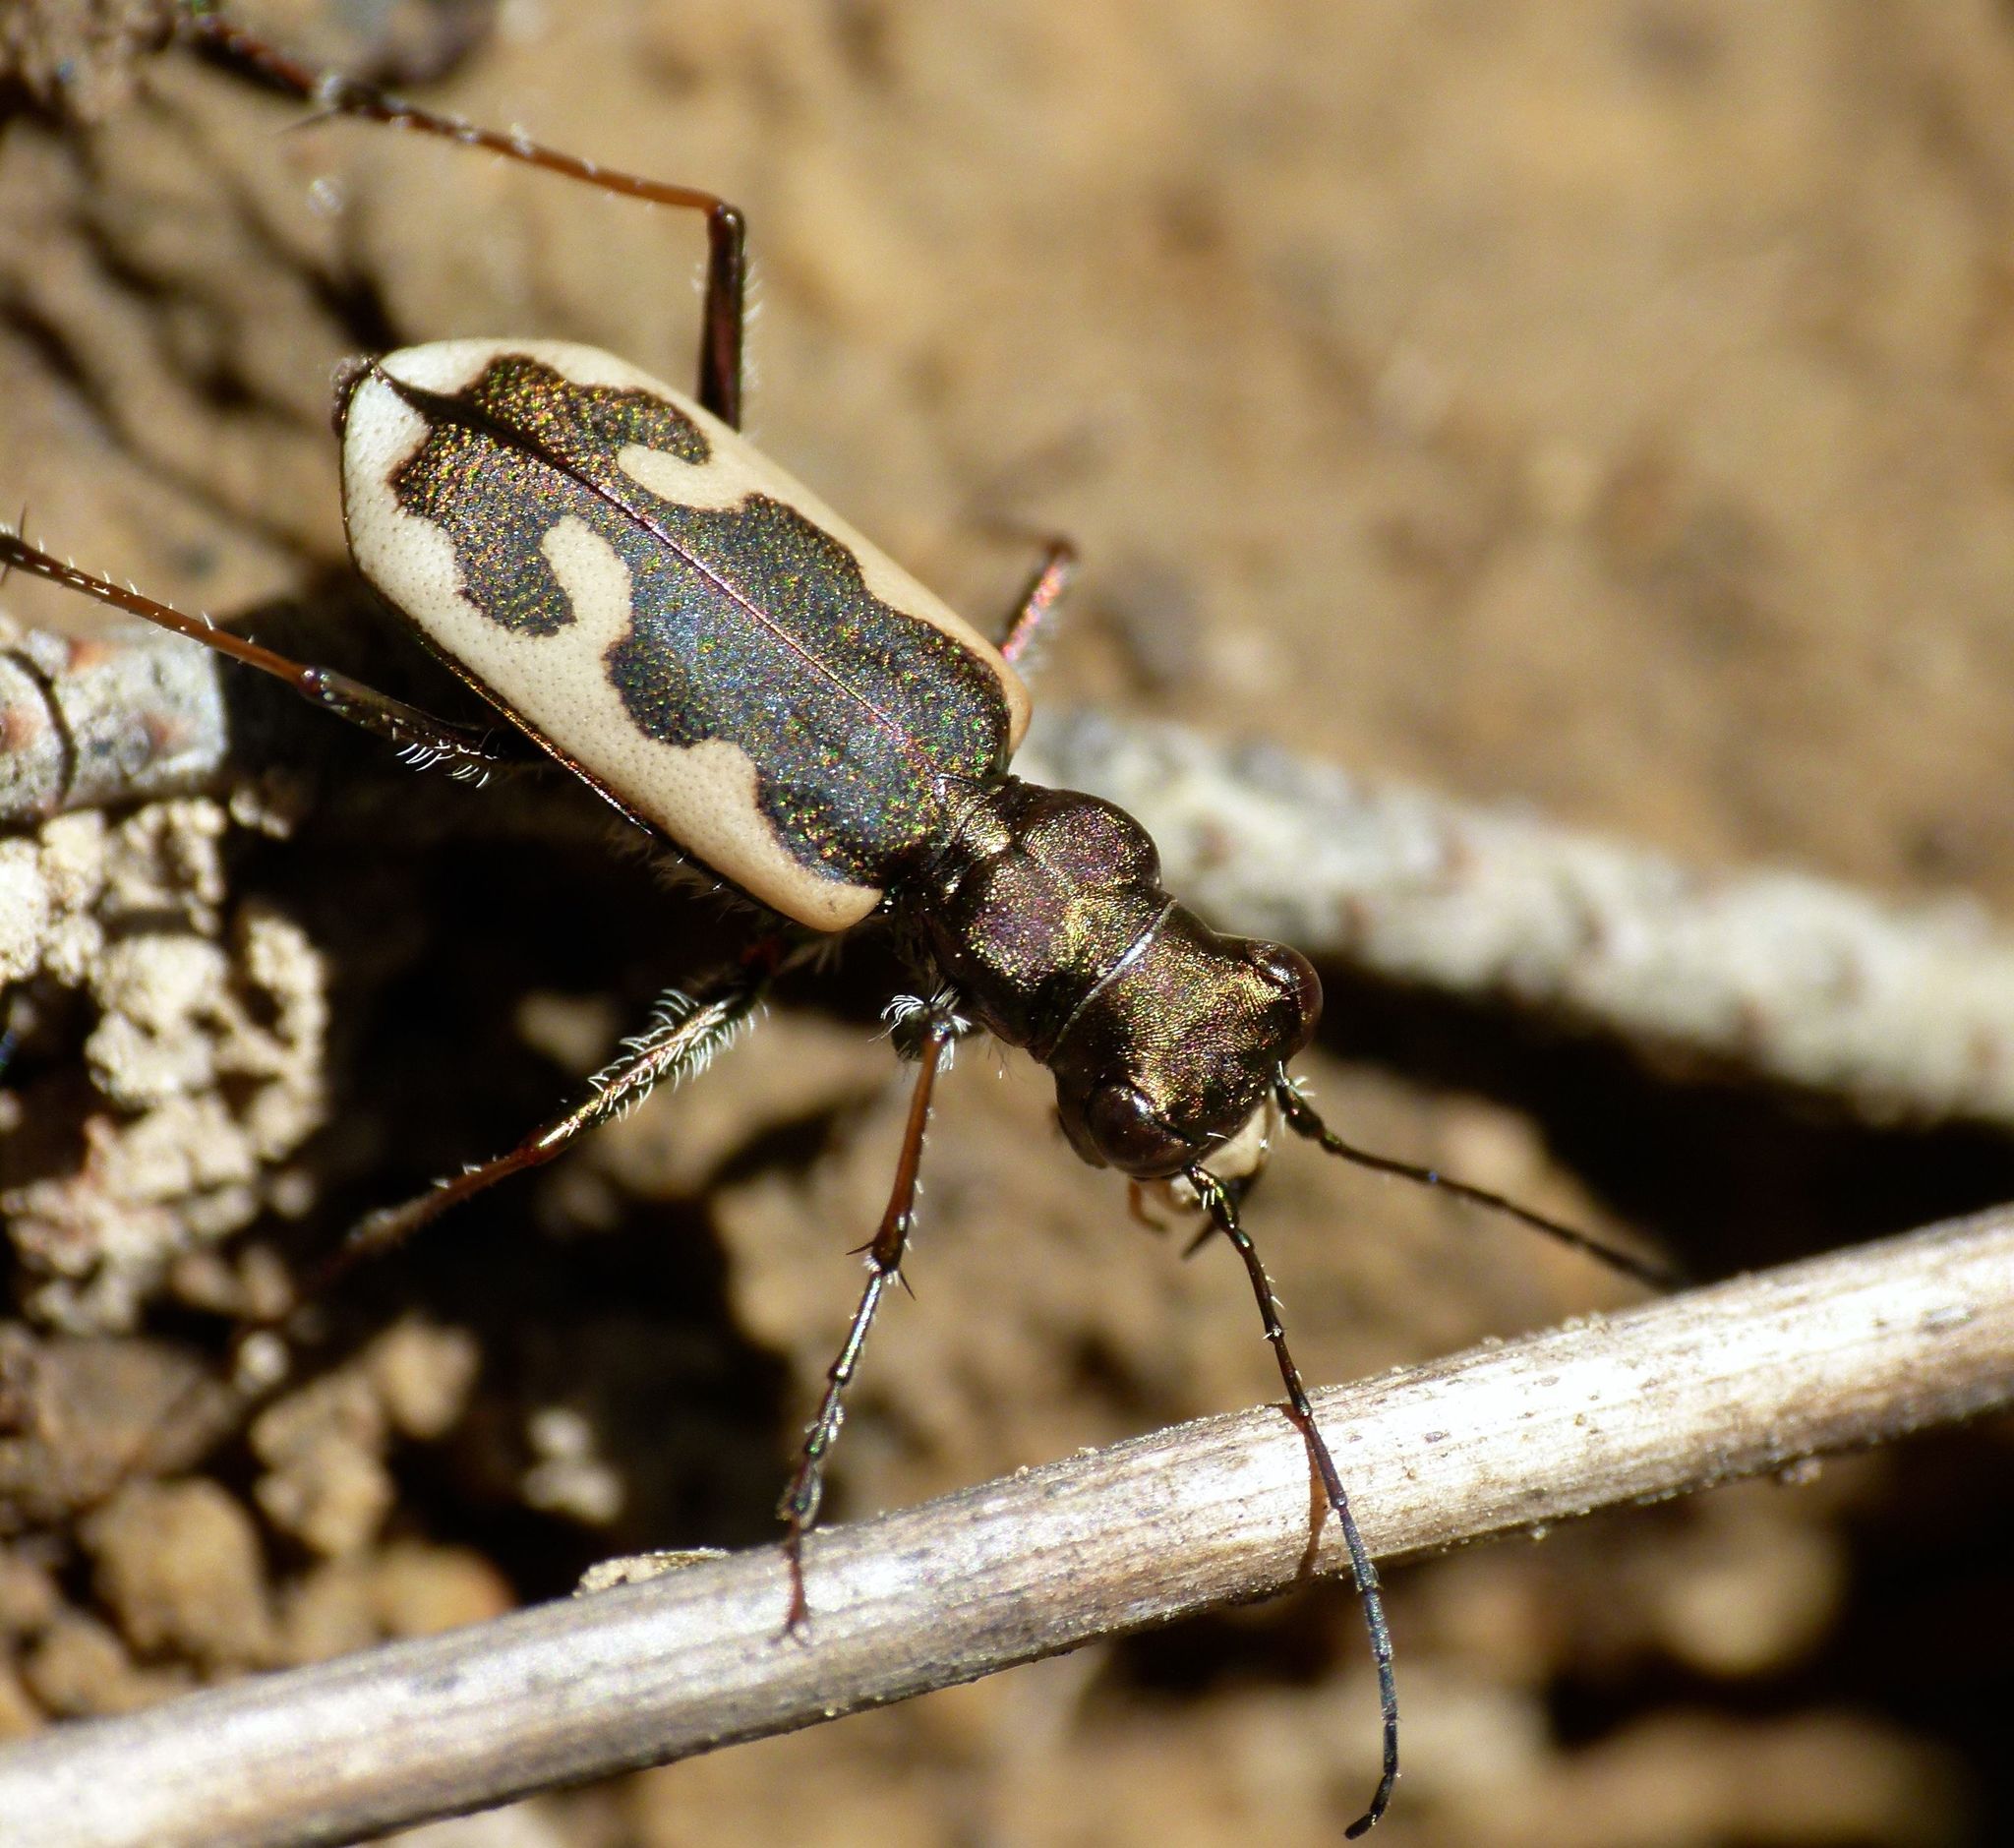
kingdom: Animalia
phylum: Arthropoda
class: Insecta
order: Coleoptera
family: Carabidae
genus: Neocicindela
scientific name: Neocicindela latecincta
